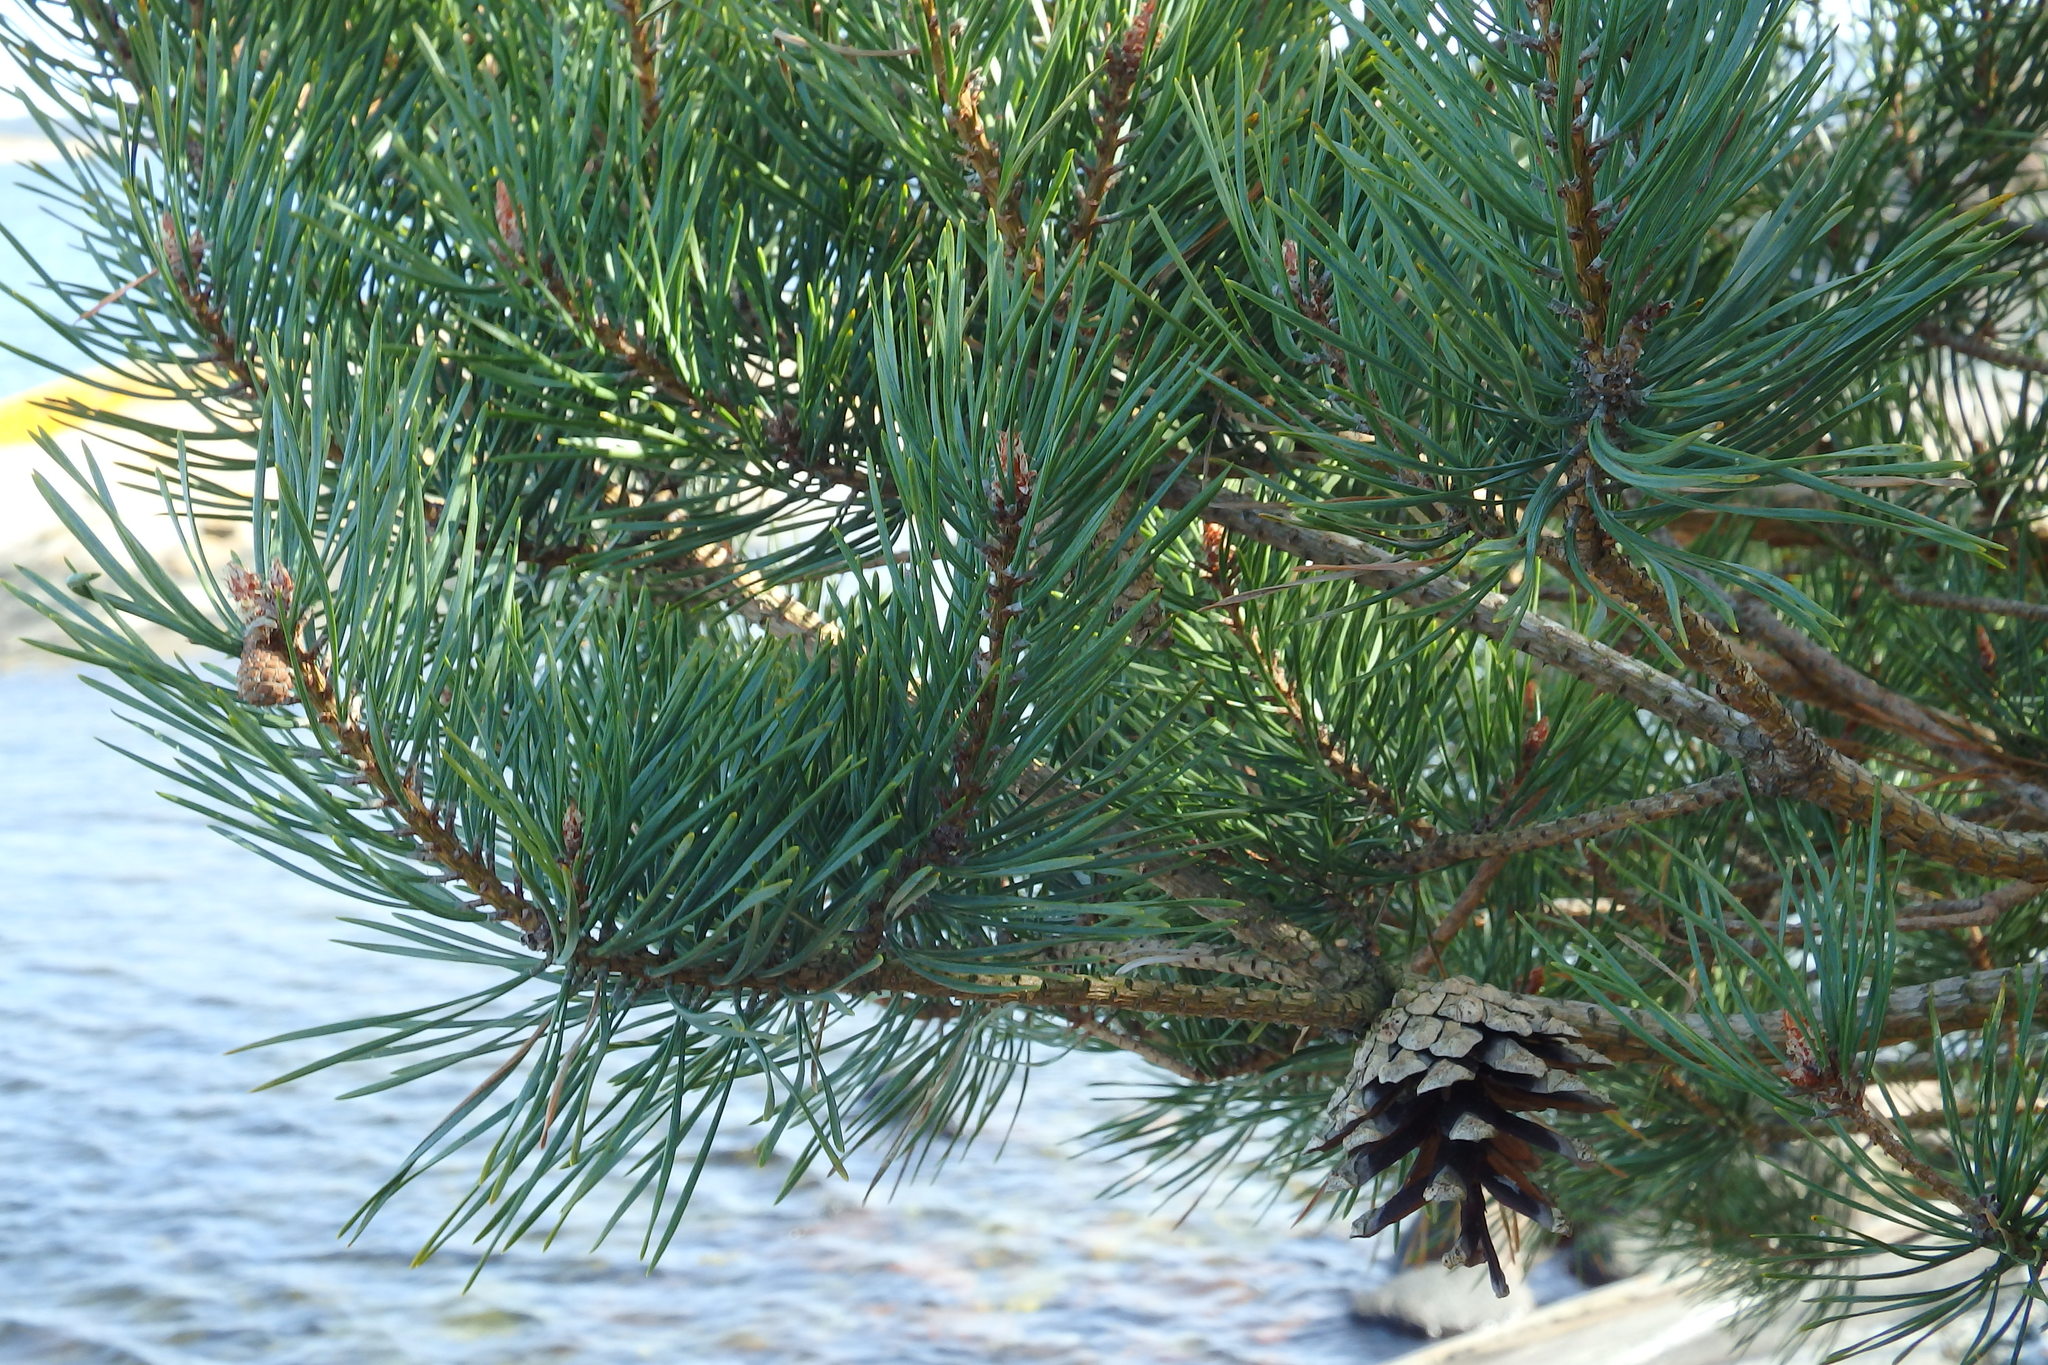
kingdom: Plantae
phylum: Tracheophyta
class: Pinopsida
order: Pinales
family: Pinaceae
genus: Pinus
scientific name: Pinus sylvestris
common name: Scots pine
